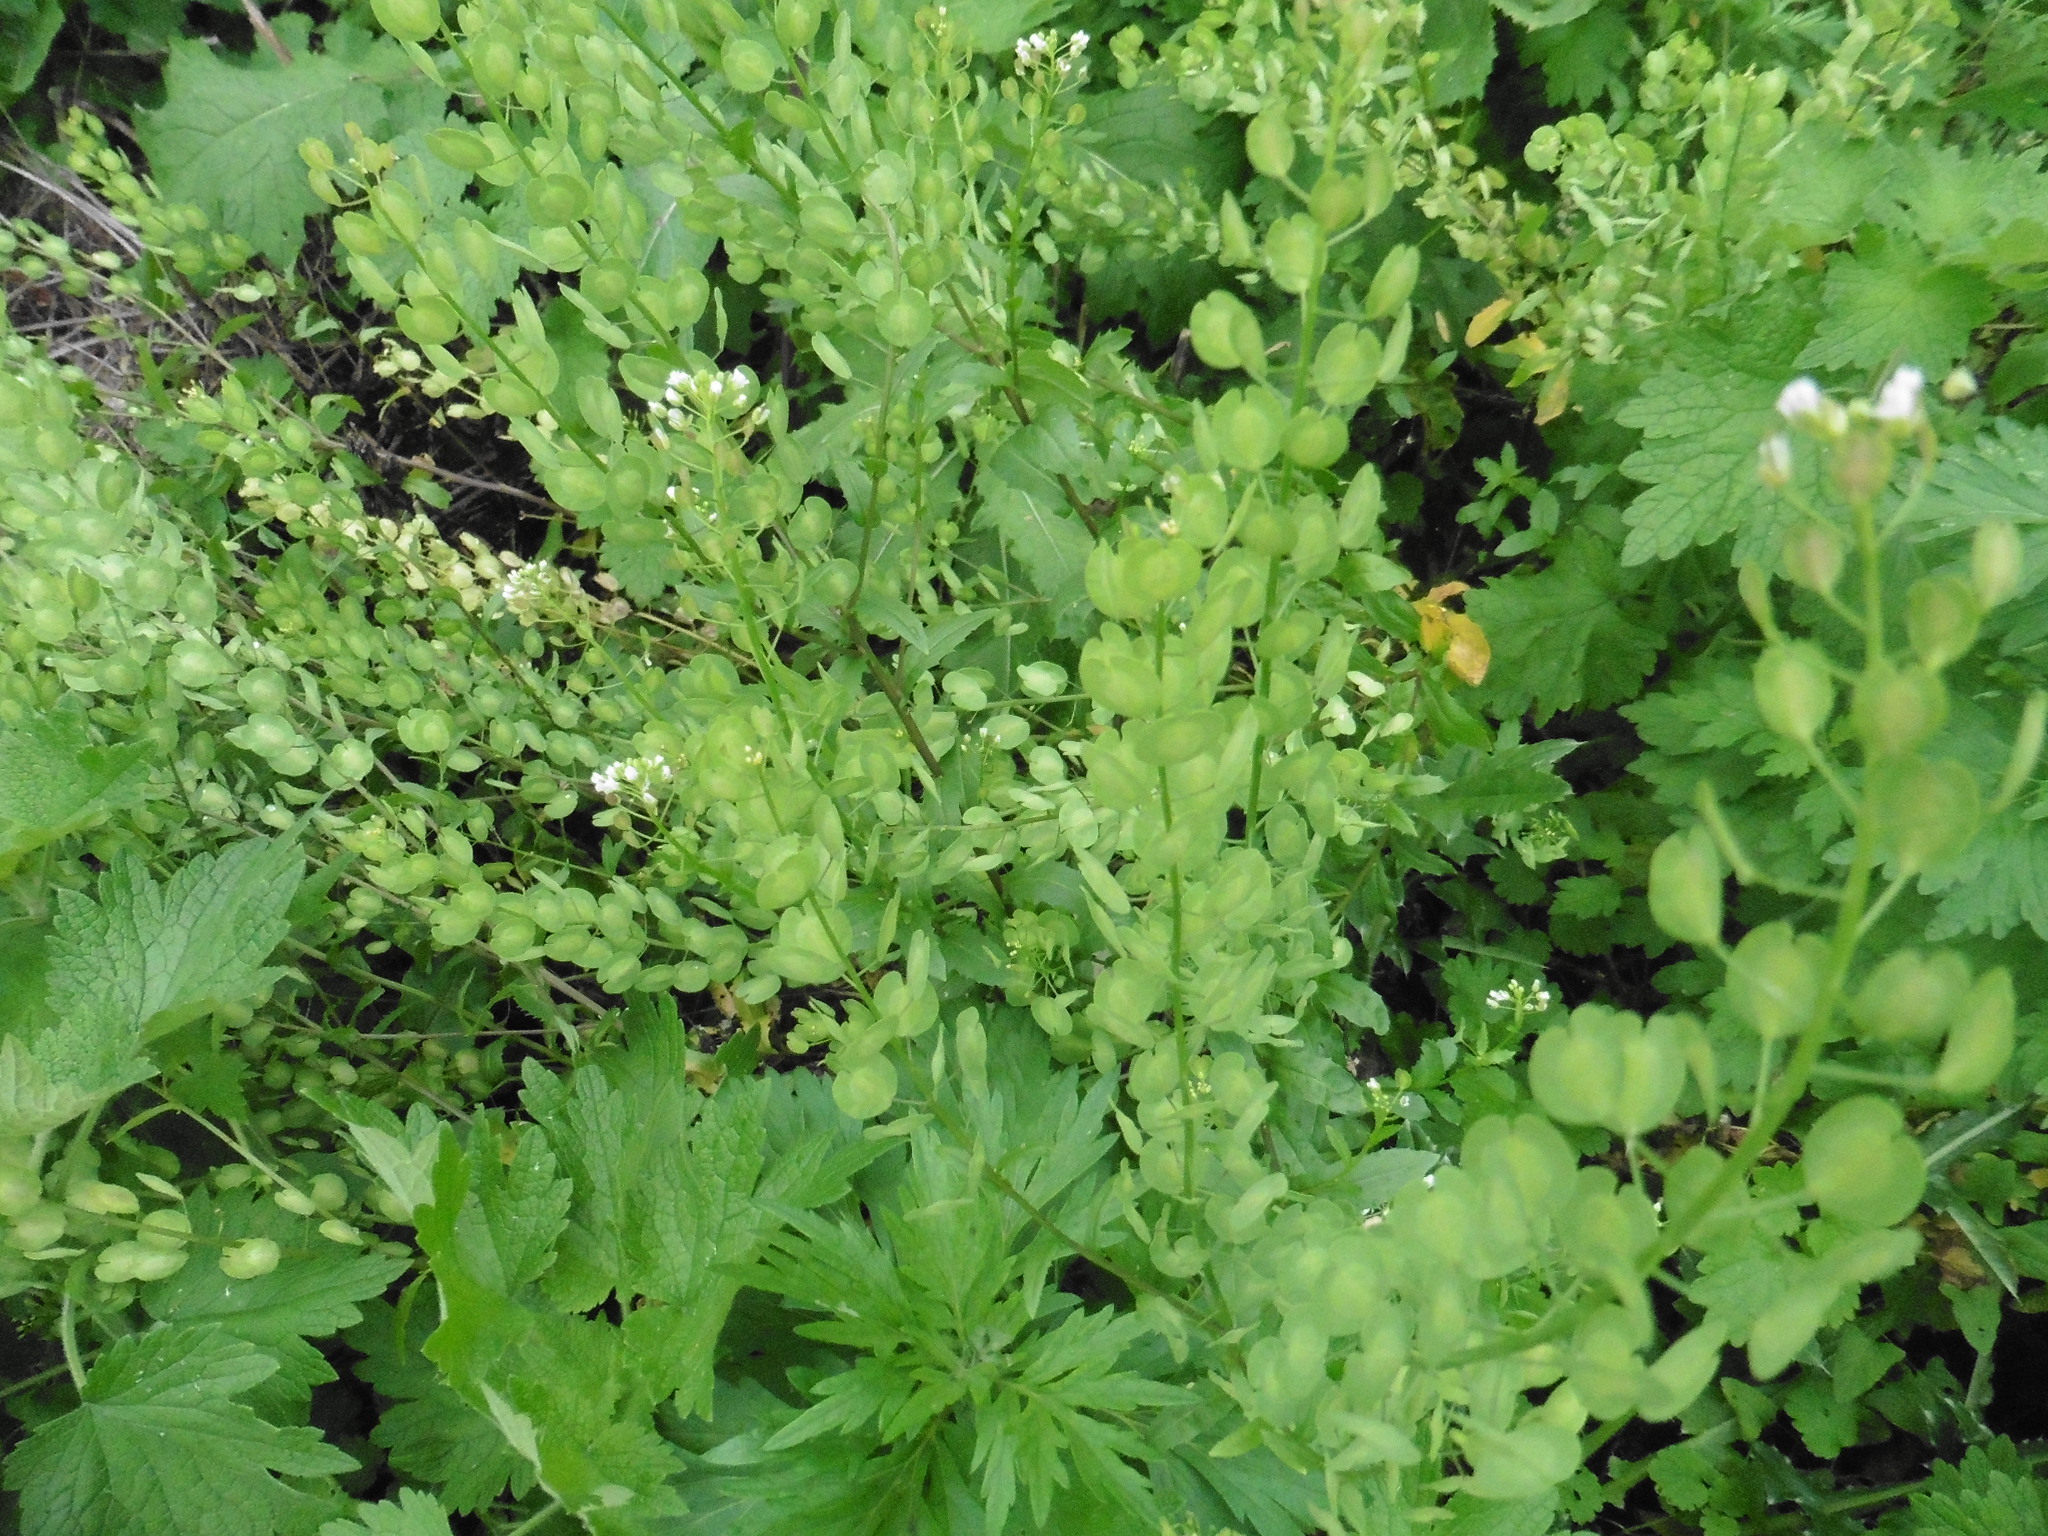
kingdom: Plantae
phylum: Tracheophyta
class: Magnoliopsida
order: Brassicales
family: Brassicaceae
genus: Thlaspi
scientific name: Thlaspi arvense
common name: Field pennycress
